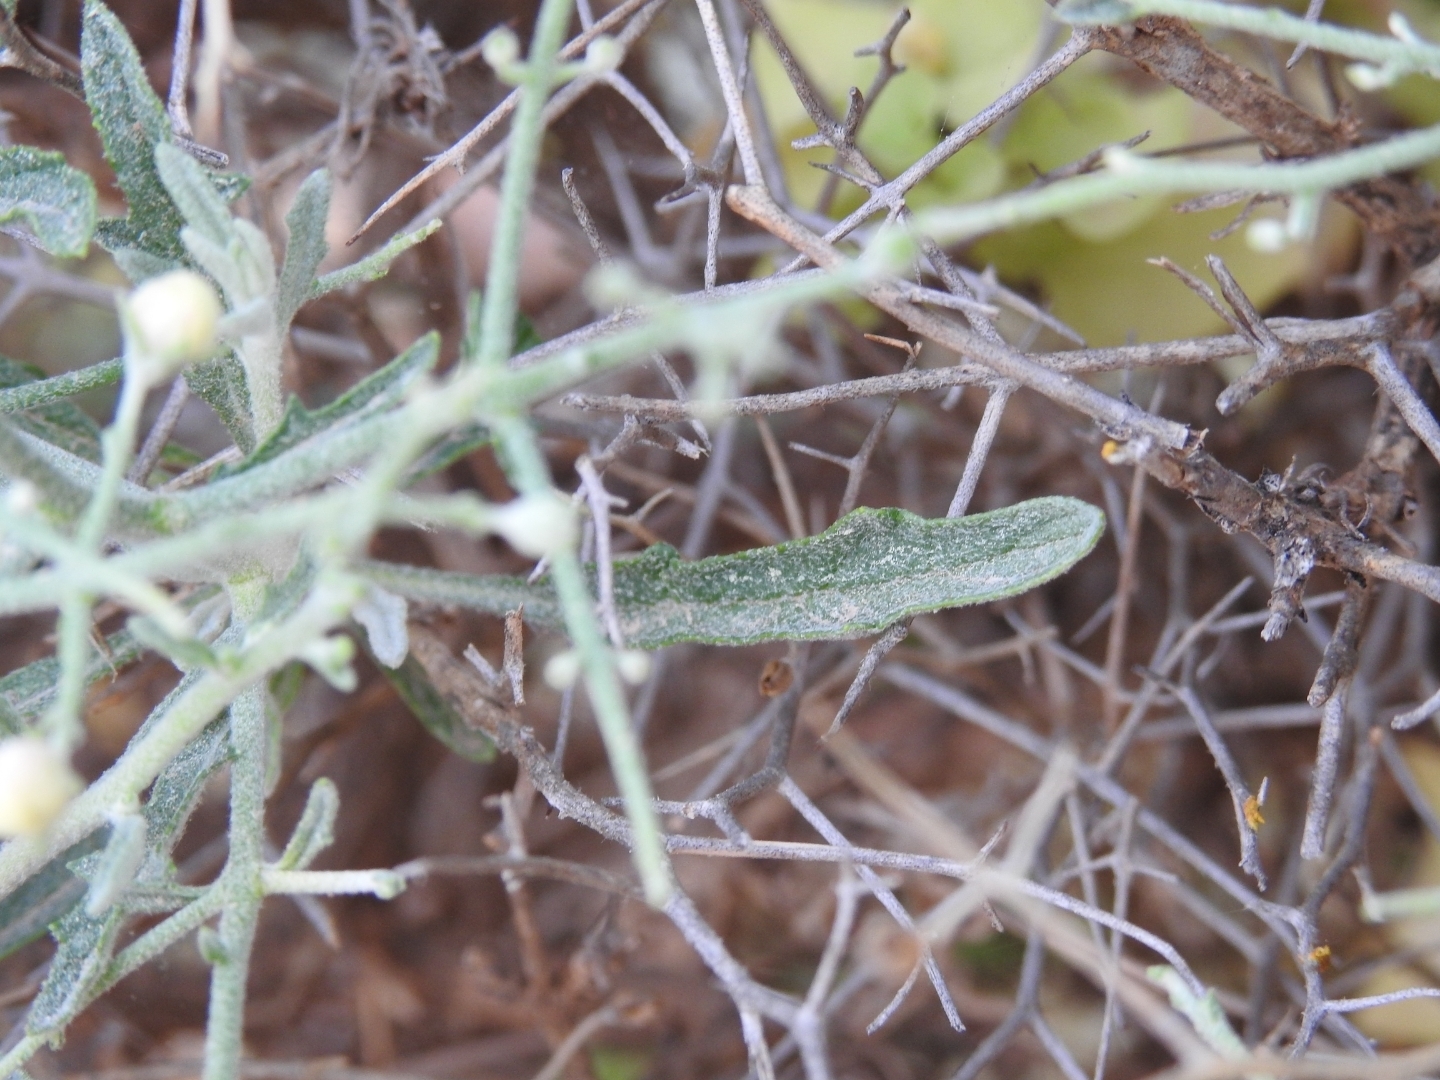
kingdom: Plantae
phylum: Tracheophyta
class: Magnoliopsida
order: Lamiales
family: Scrophulariaceae
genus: Verbascum
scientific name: Verbascum spinosum
